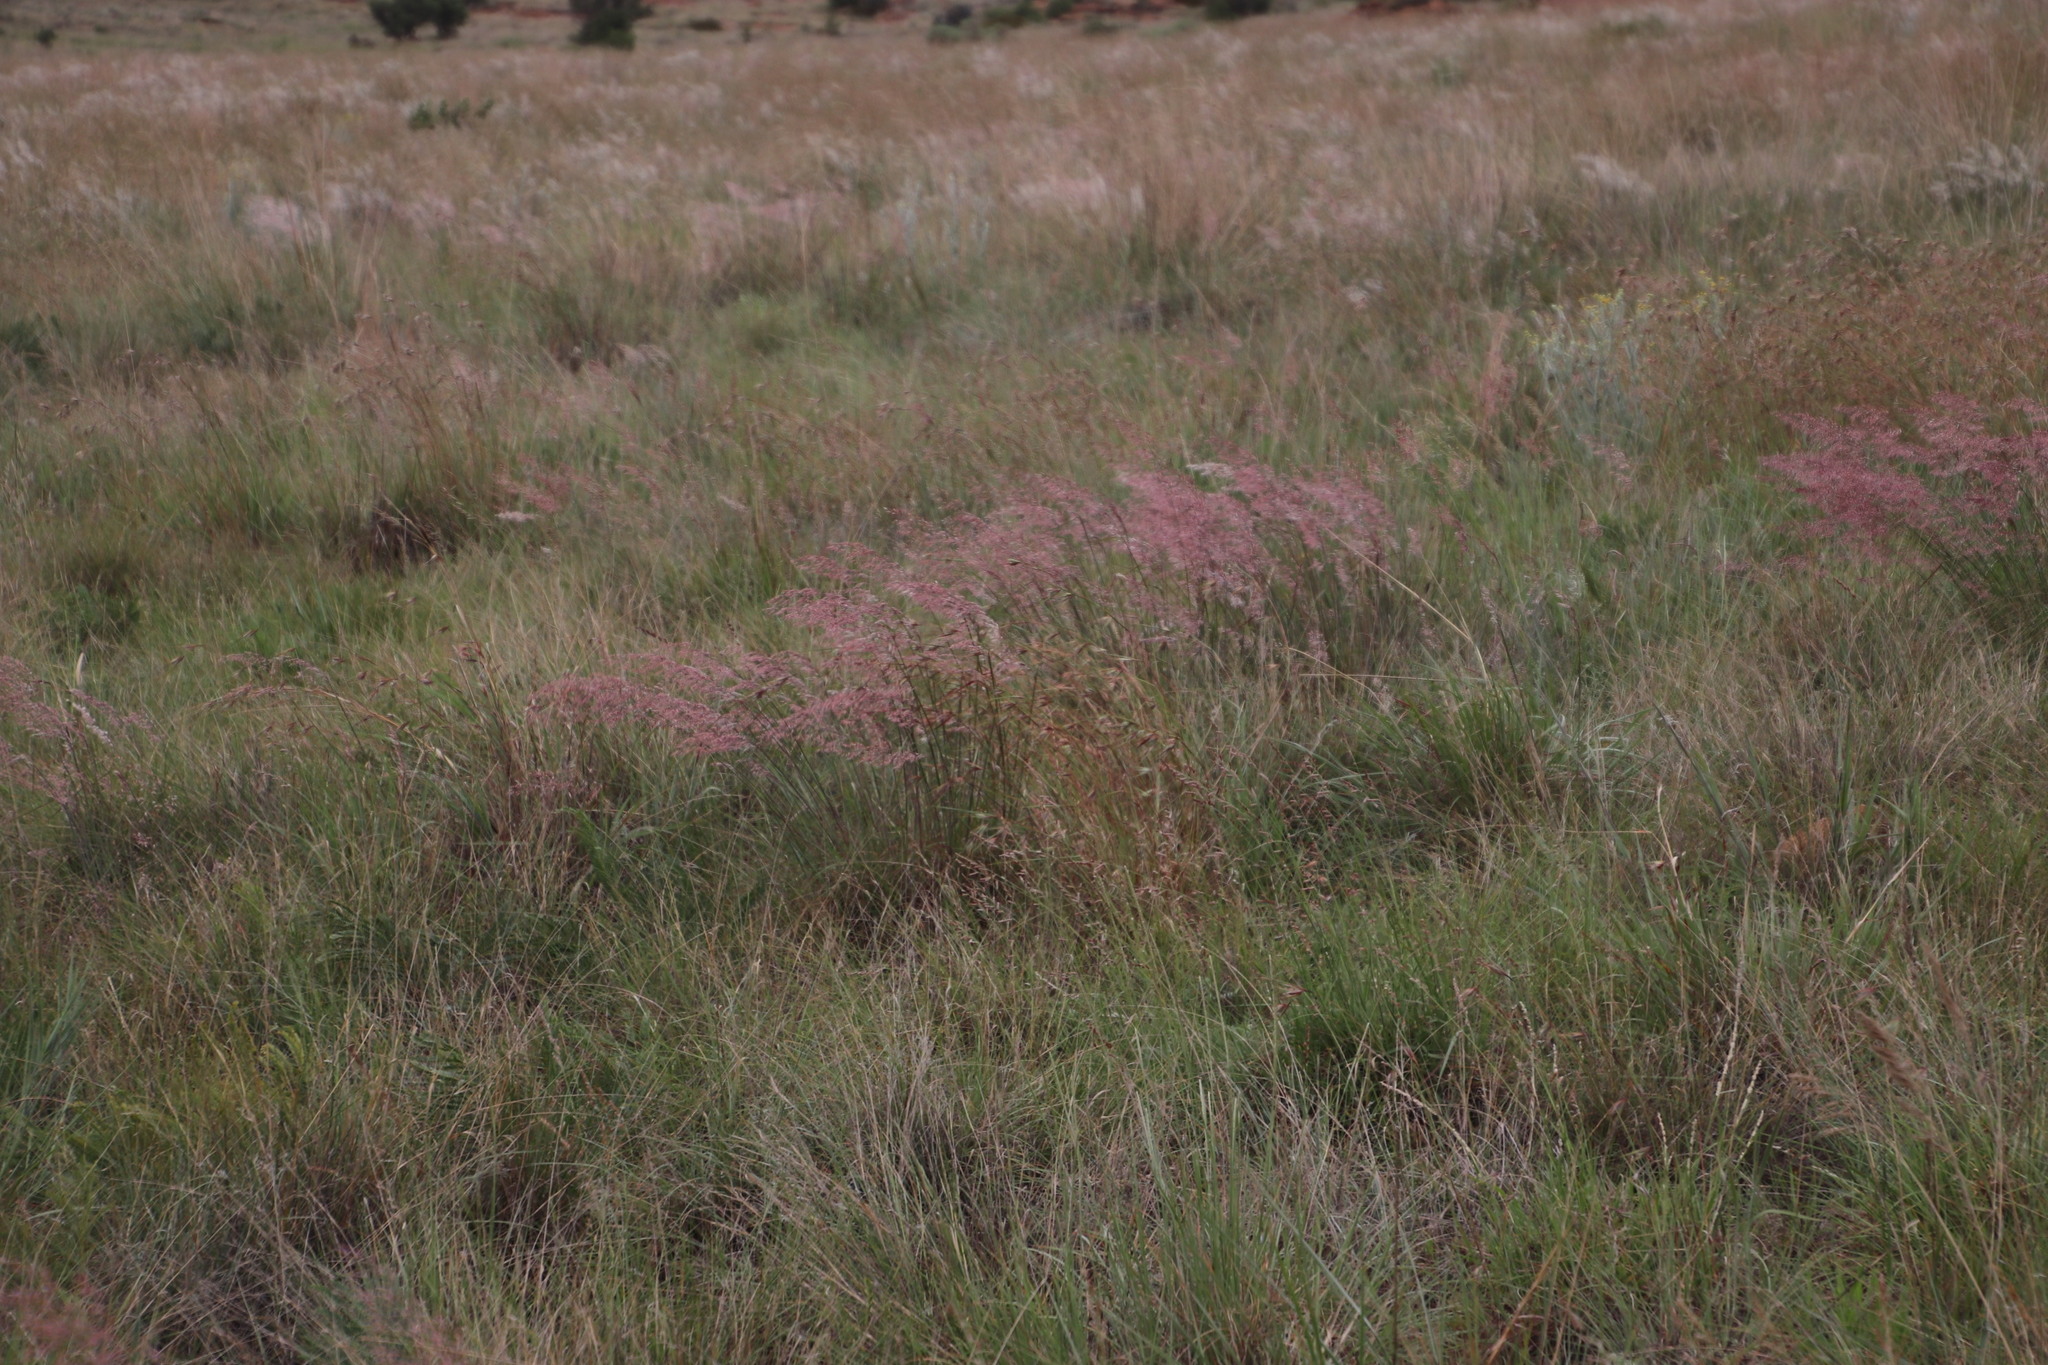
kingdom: Plantae
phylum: Tracheophyta
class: Liliopsida
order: Poales
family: Poaceae
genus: Melinis
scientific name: Melinis repens
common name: Rose natal grass
